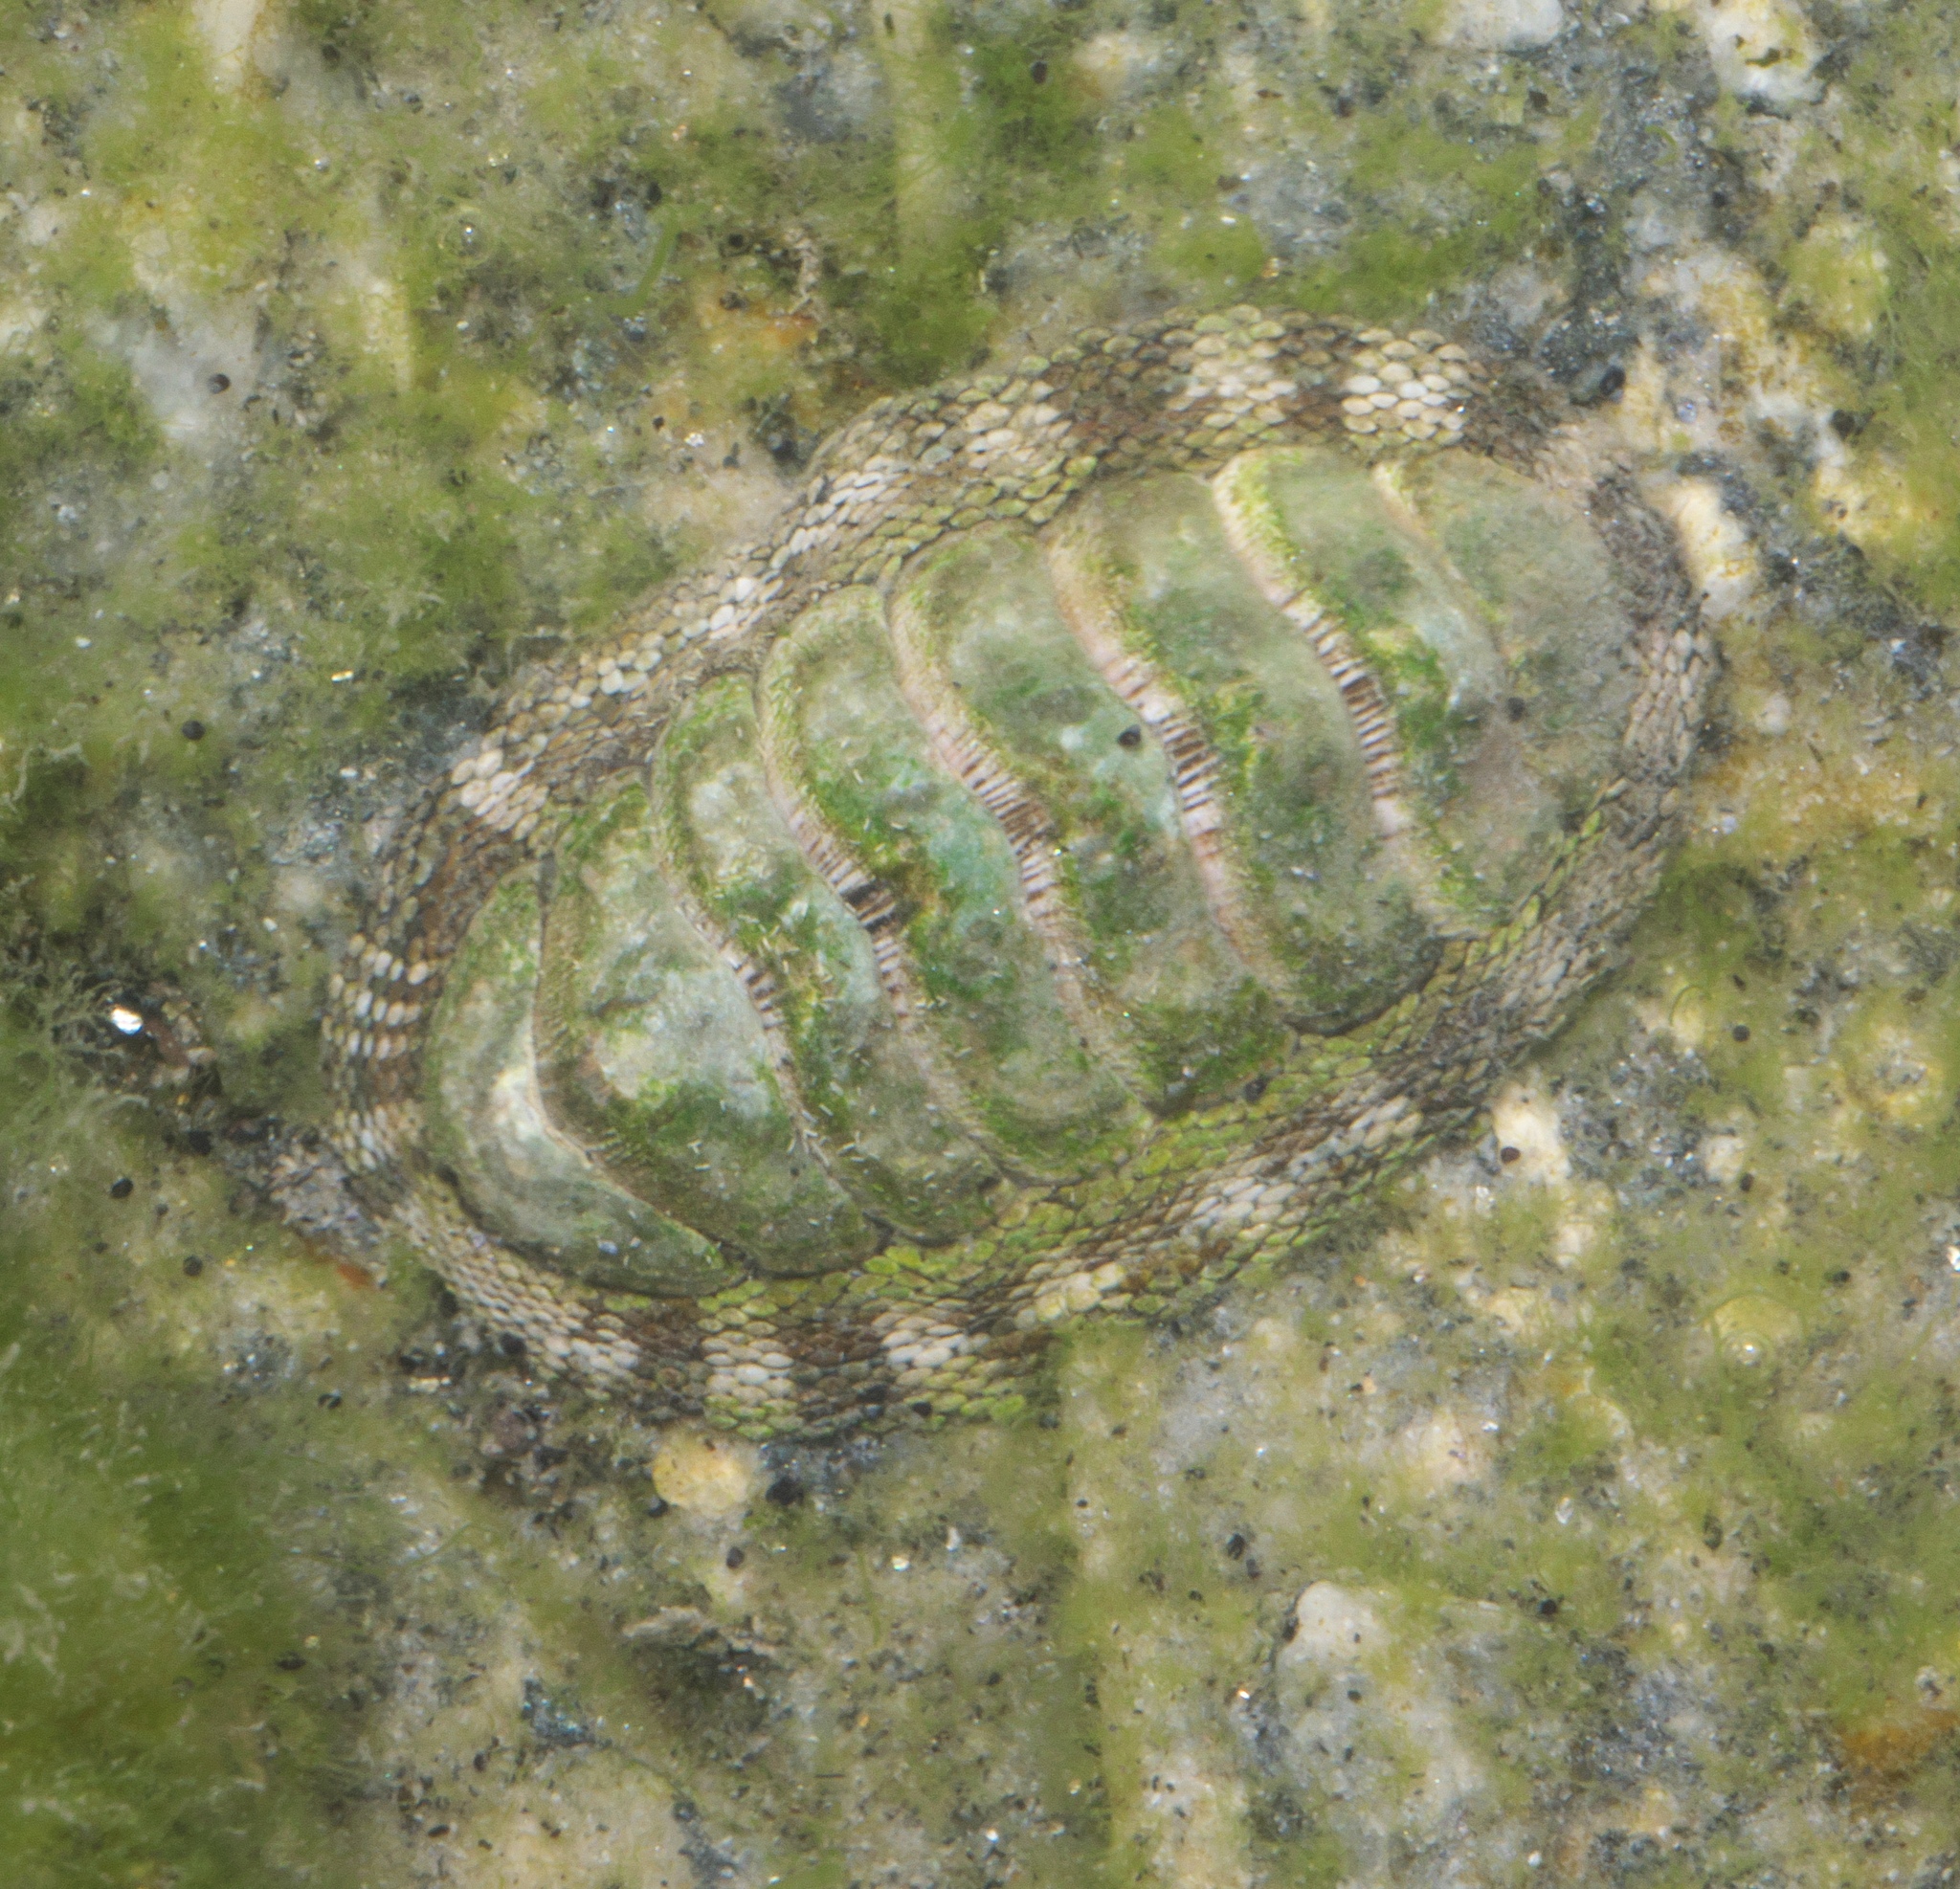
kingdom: Animalia
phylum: Mollusca
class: Polyplacophora
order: Chitonida
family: Chitonidae
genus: Sypharochiton
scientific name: Sypharochiton pelliserpentis
